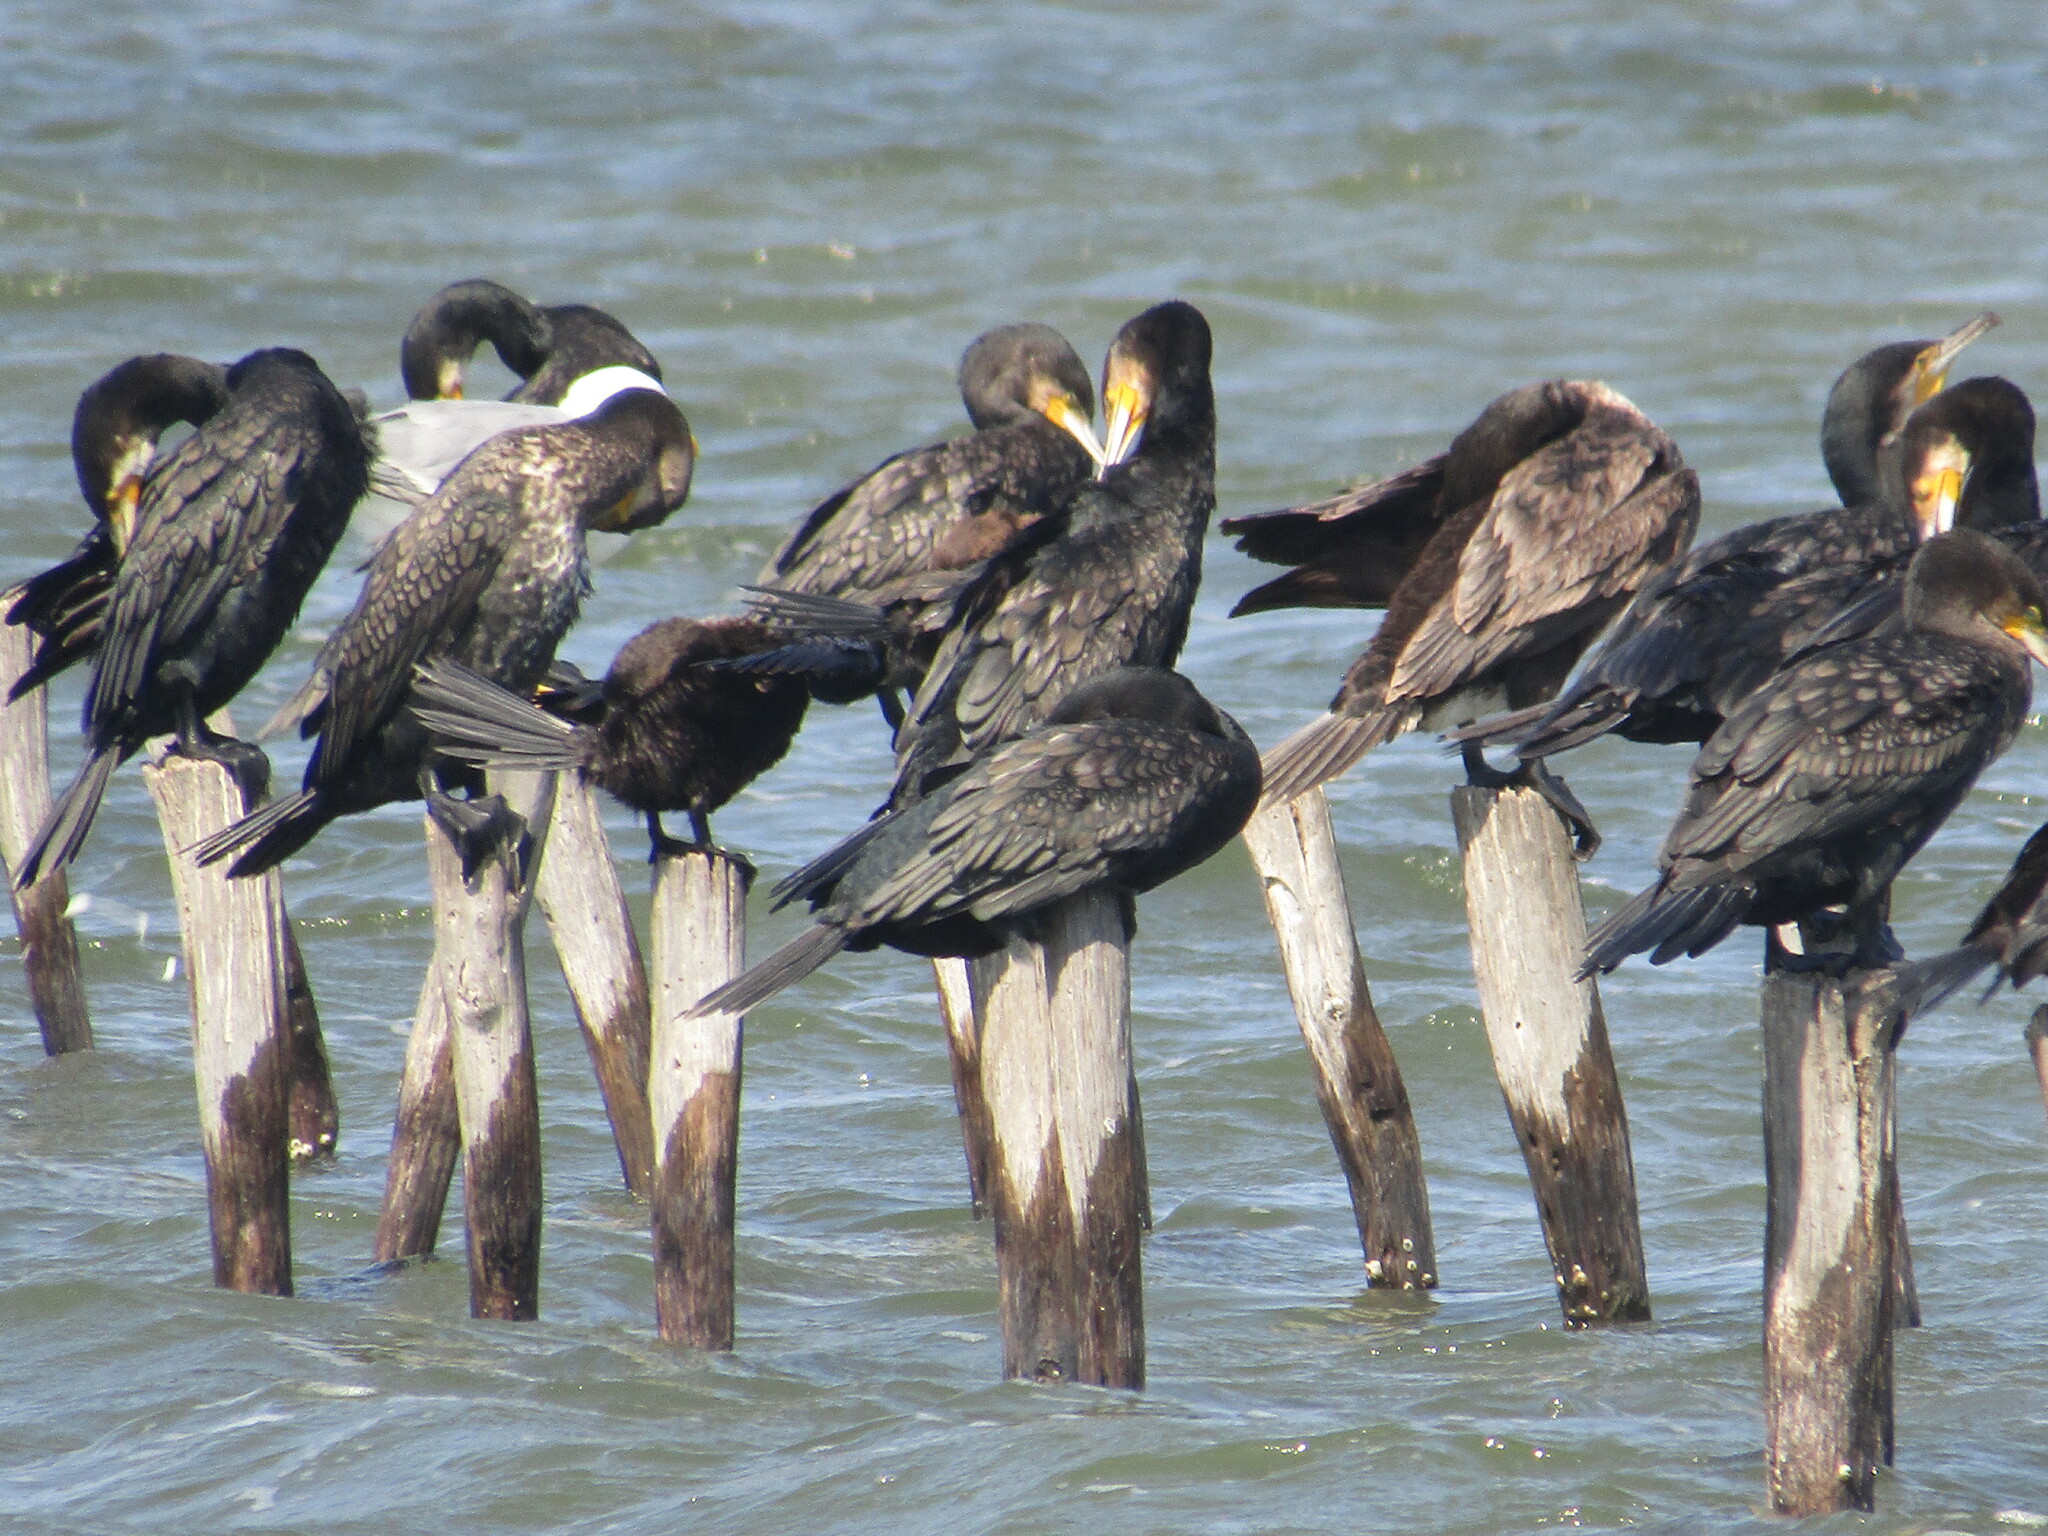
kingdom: Animalia
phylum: Chordata
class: Aves
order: Suliformes
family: Phalacrocoracidae
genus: Phalacrocorax
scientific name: Phalacrocorax carbo
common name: Great cormorant
